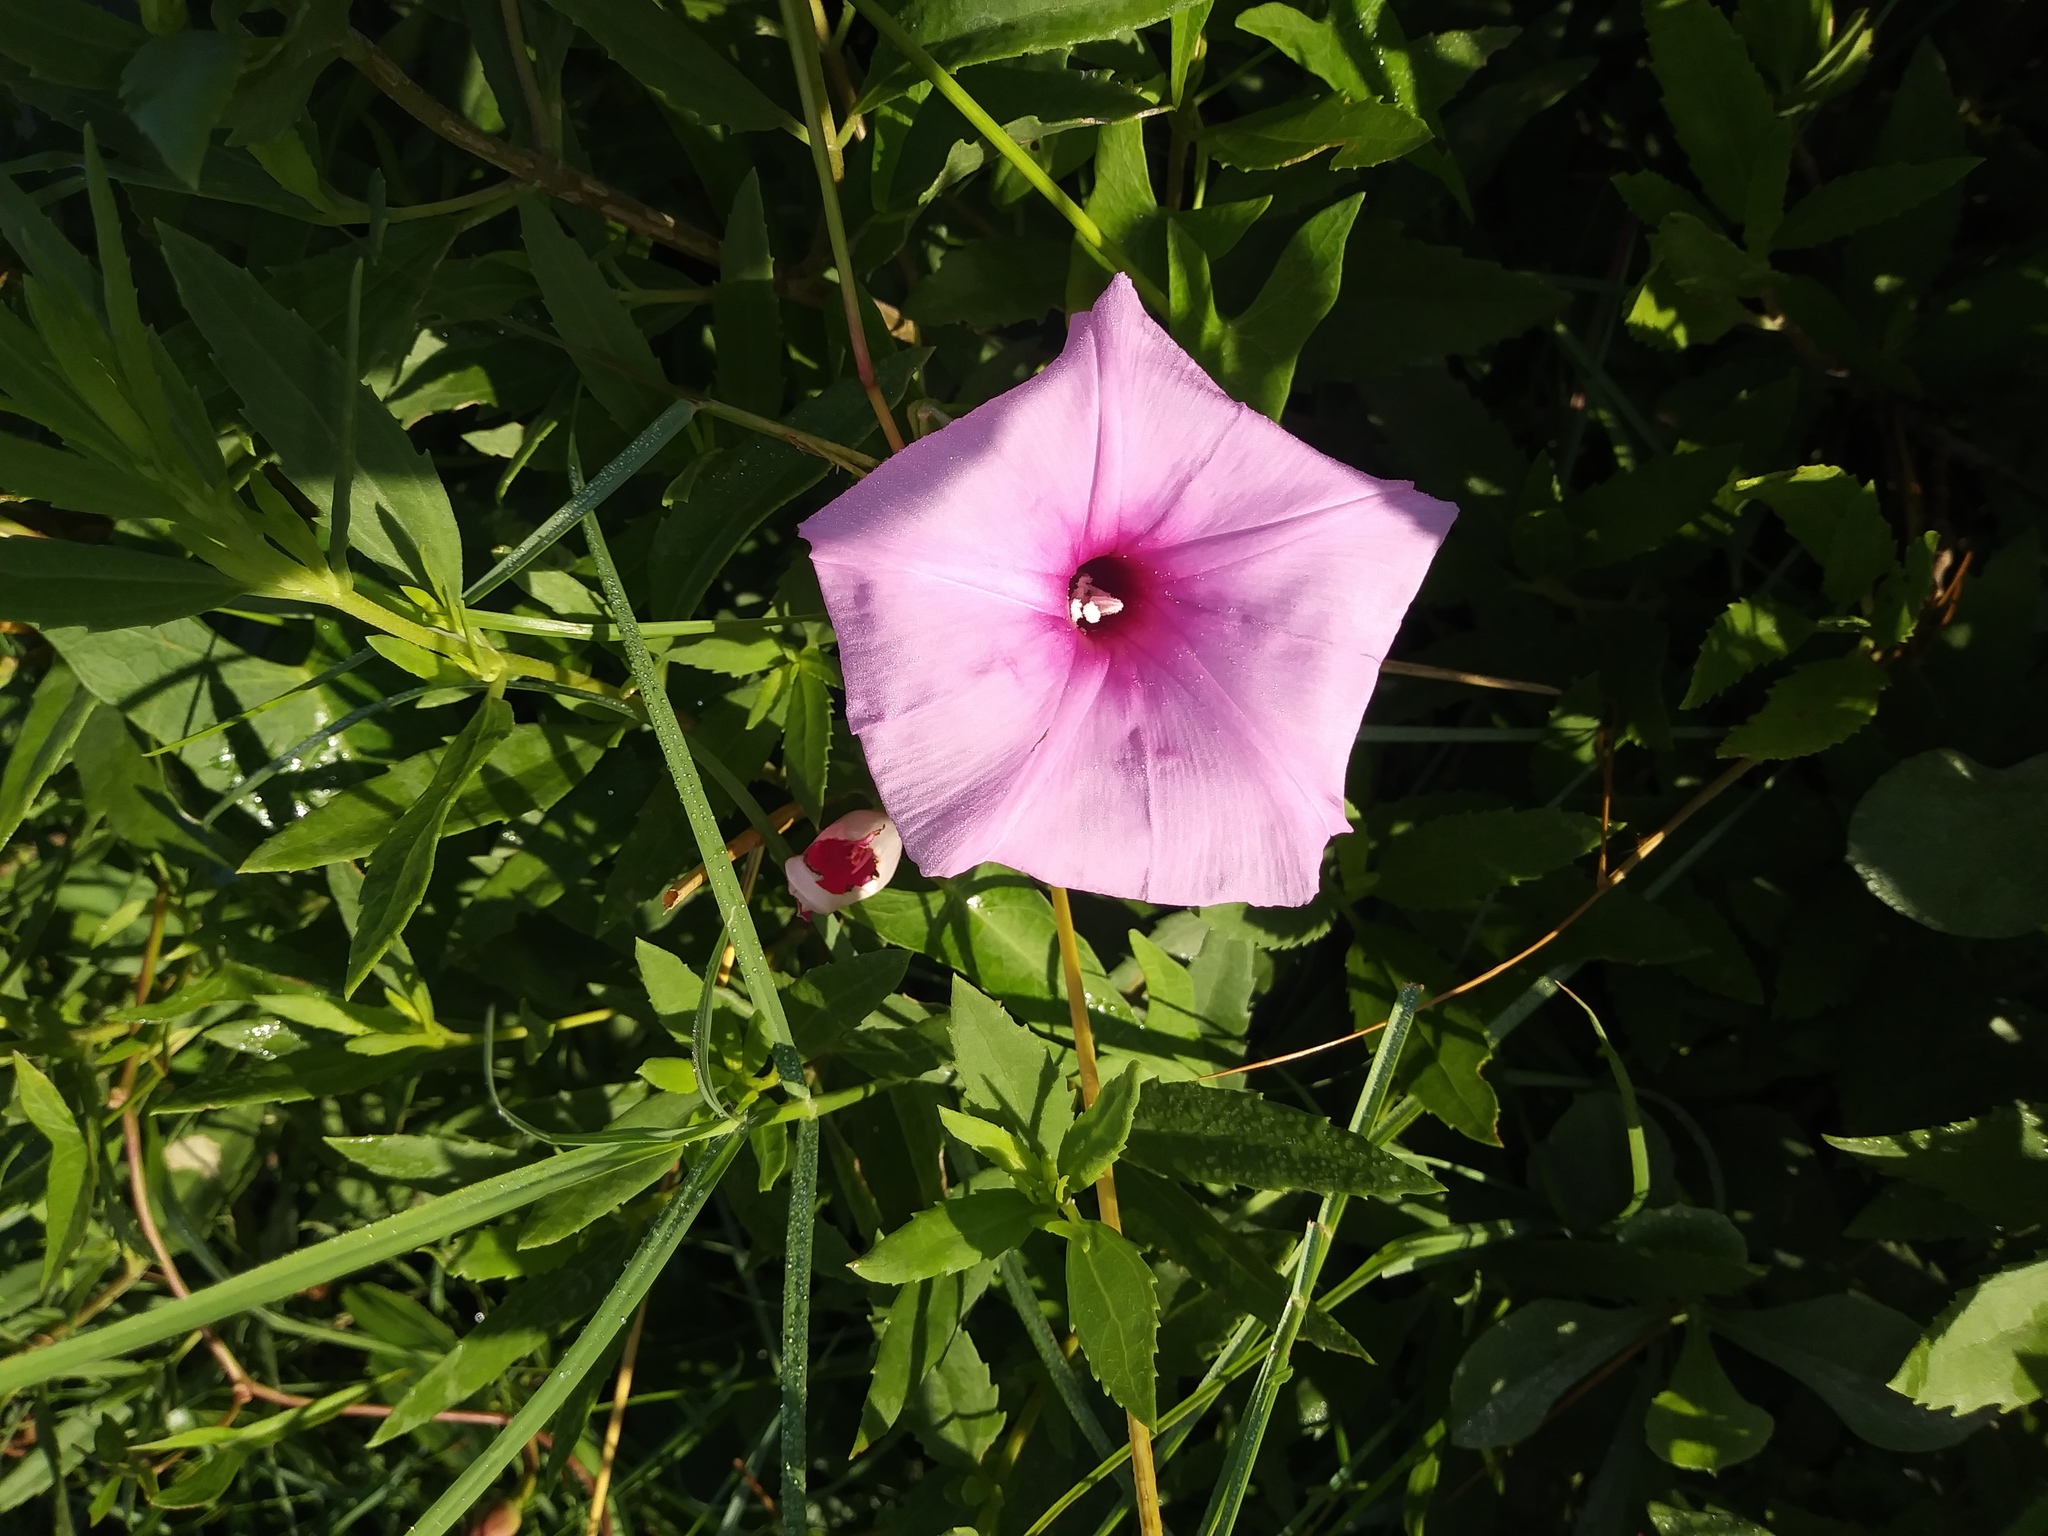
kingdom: Plantae
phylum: Tracheophyta
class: Magnoliopsida
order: Solanales
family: Convolvulaceae
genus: Ipomoea
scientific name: Ipomoea sagittata
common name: Saltmarsh morning glory
